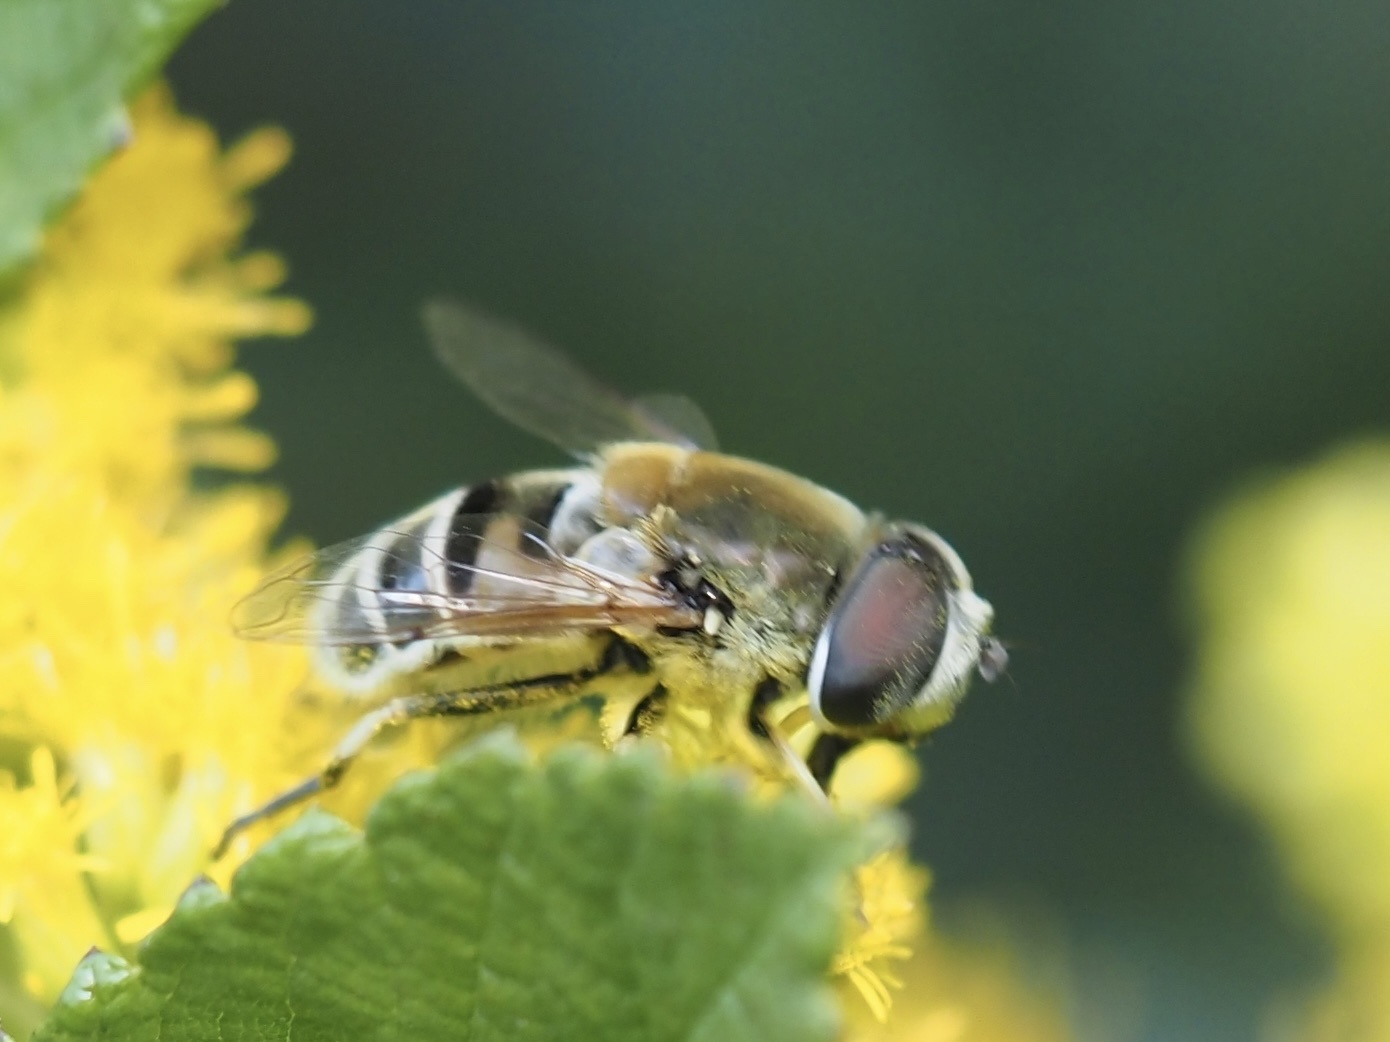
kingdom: Animalia
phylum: Arthropoda
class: Insecta
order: Diptera
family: Syrphidae
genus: Eristalis
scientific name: Eristalis stipator
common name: Yellow-shouldered drone fly
